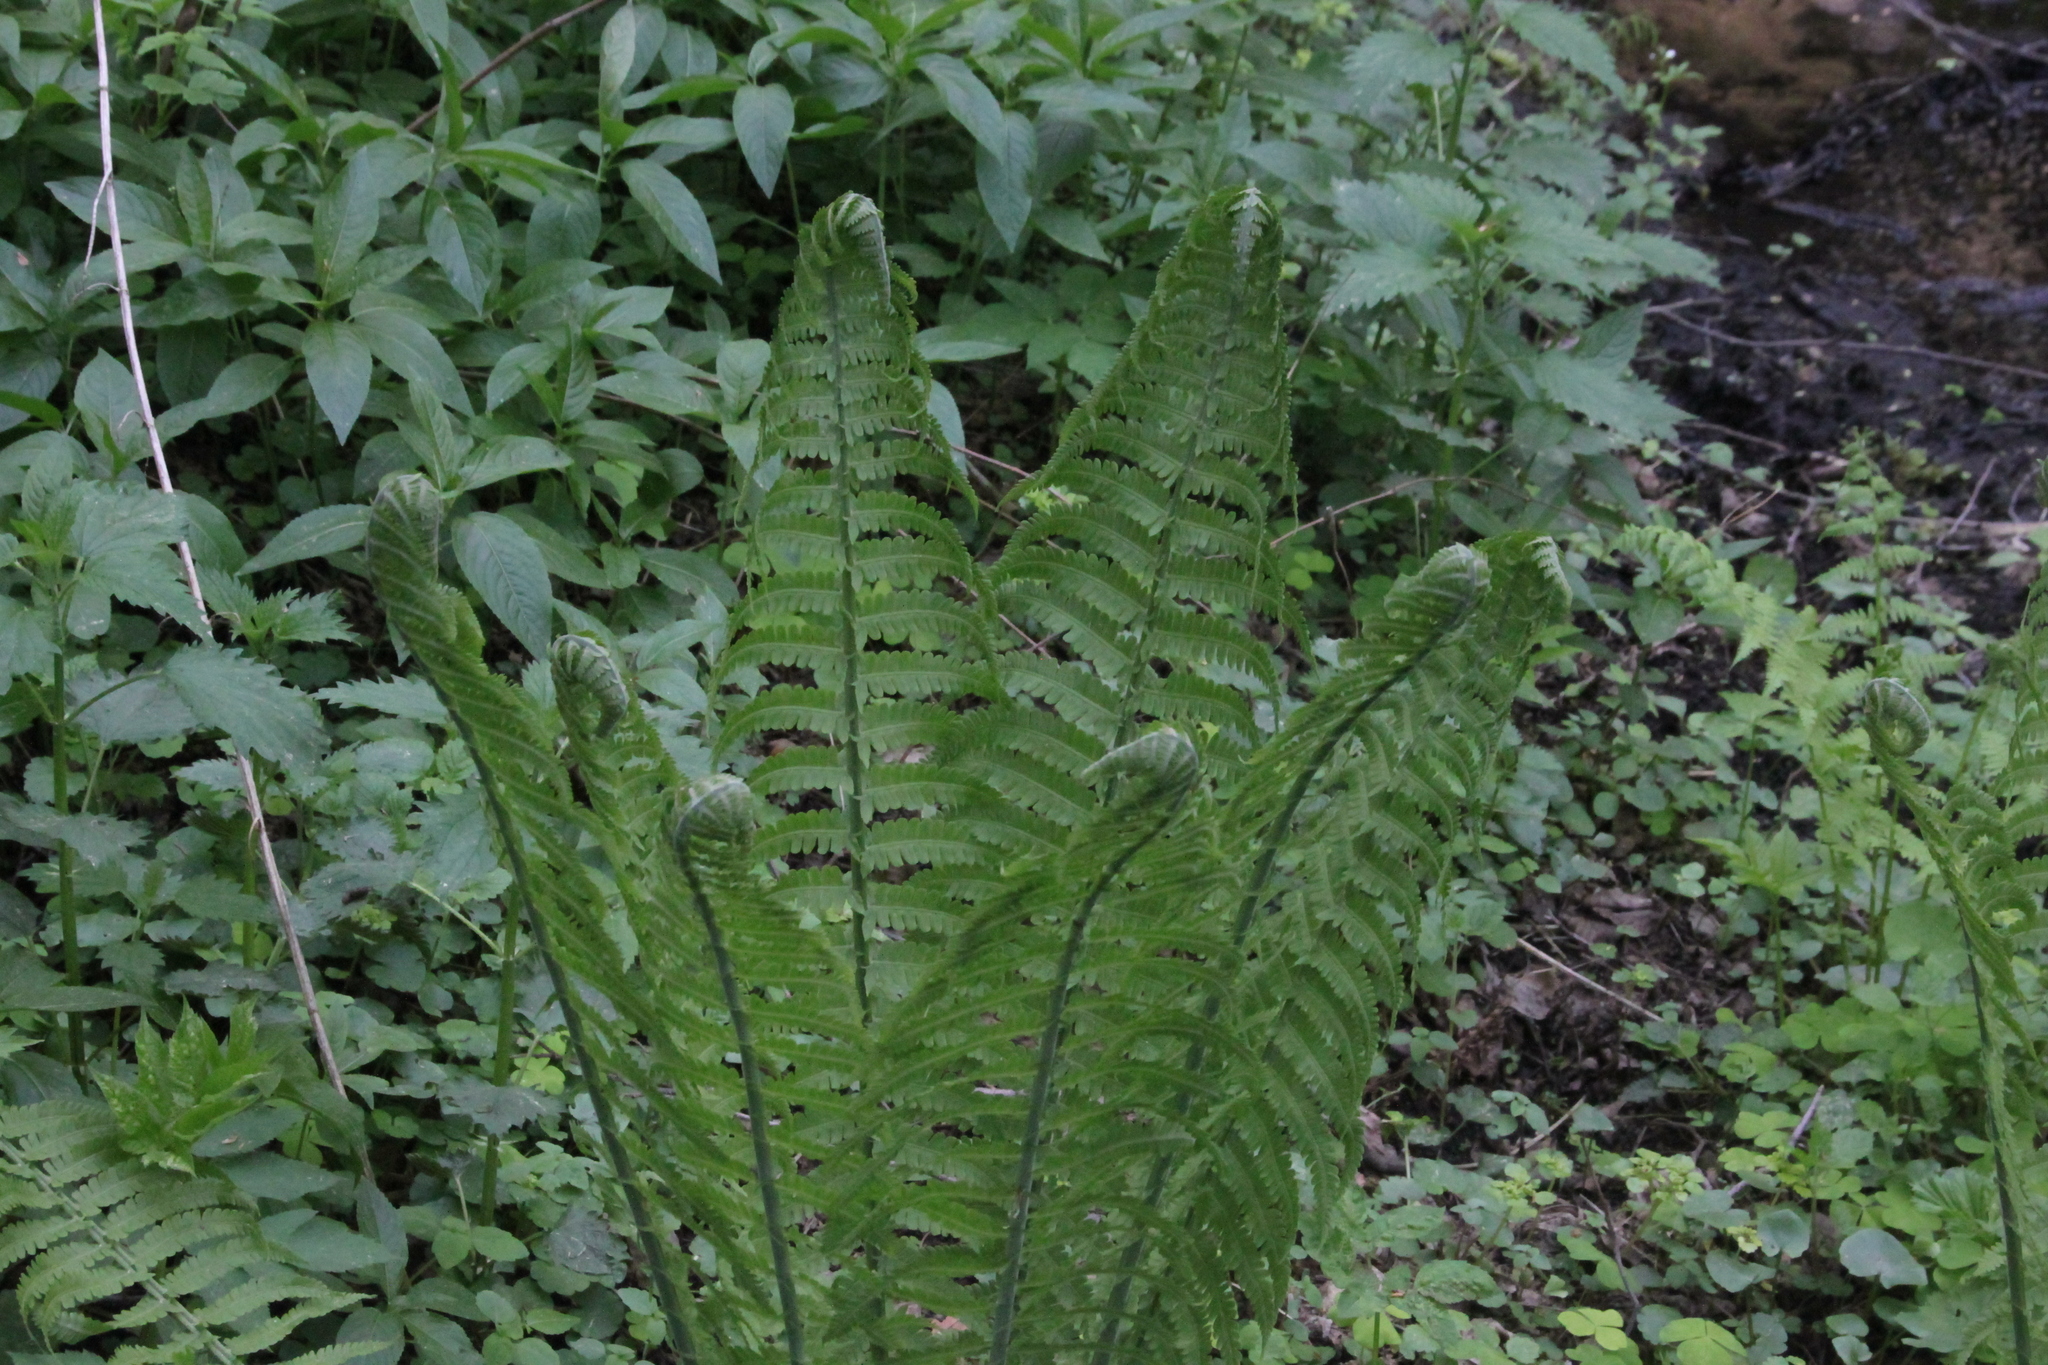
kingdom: Plantae
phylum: Tracheophyta
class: Polypodiopsida
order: Polypodiales
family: Onocleaceae
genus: Matteuccia
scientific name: Matteuccia struthiopteris
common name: Ostrich fern
